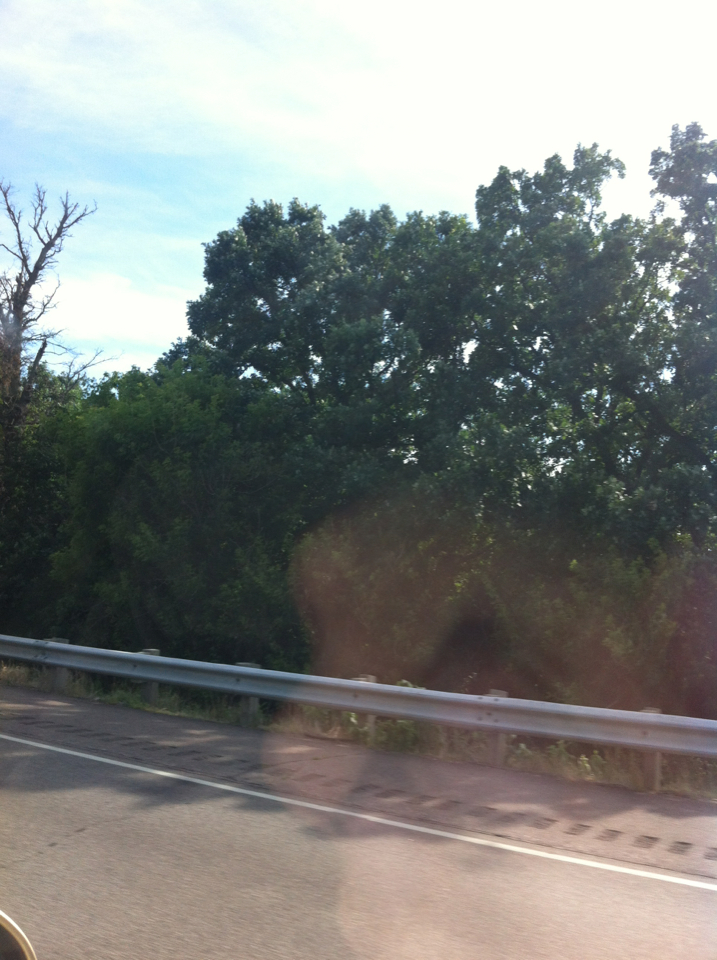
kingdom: Plantae
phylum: Tracheophyta
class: Magnoliopsida
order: Fagales
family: Fagaceae
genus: Quercus
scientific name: Quercus
